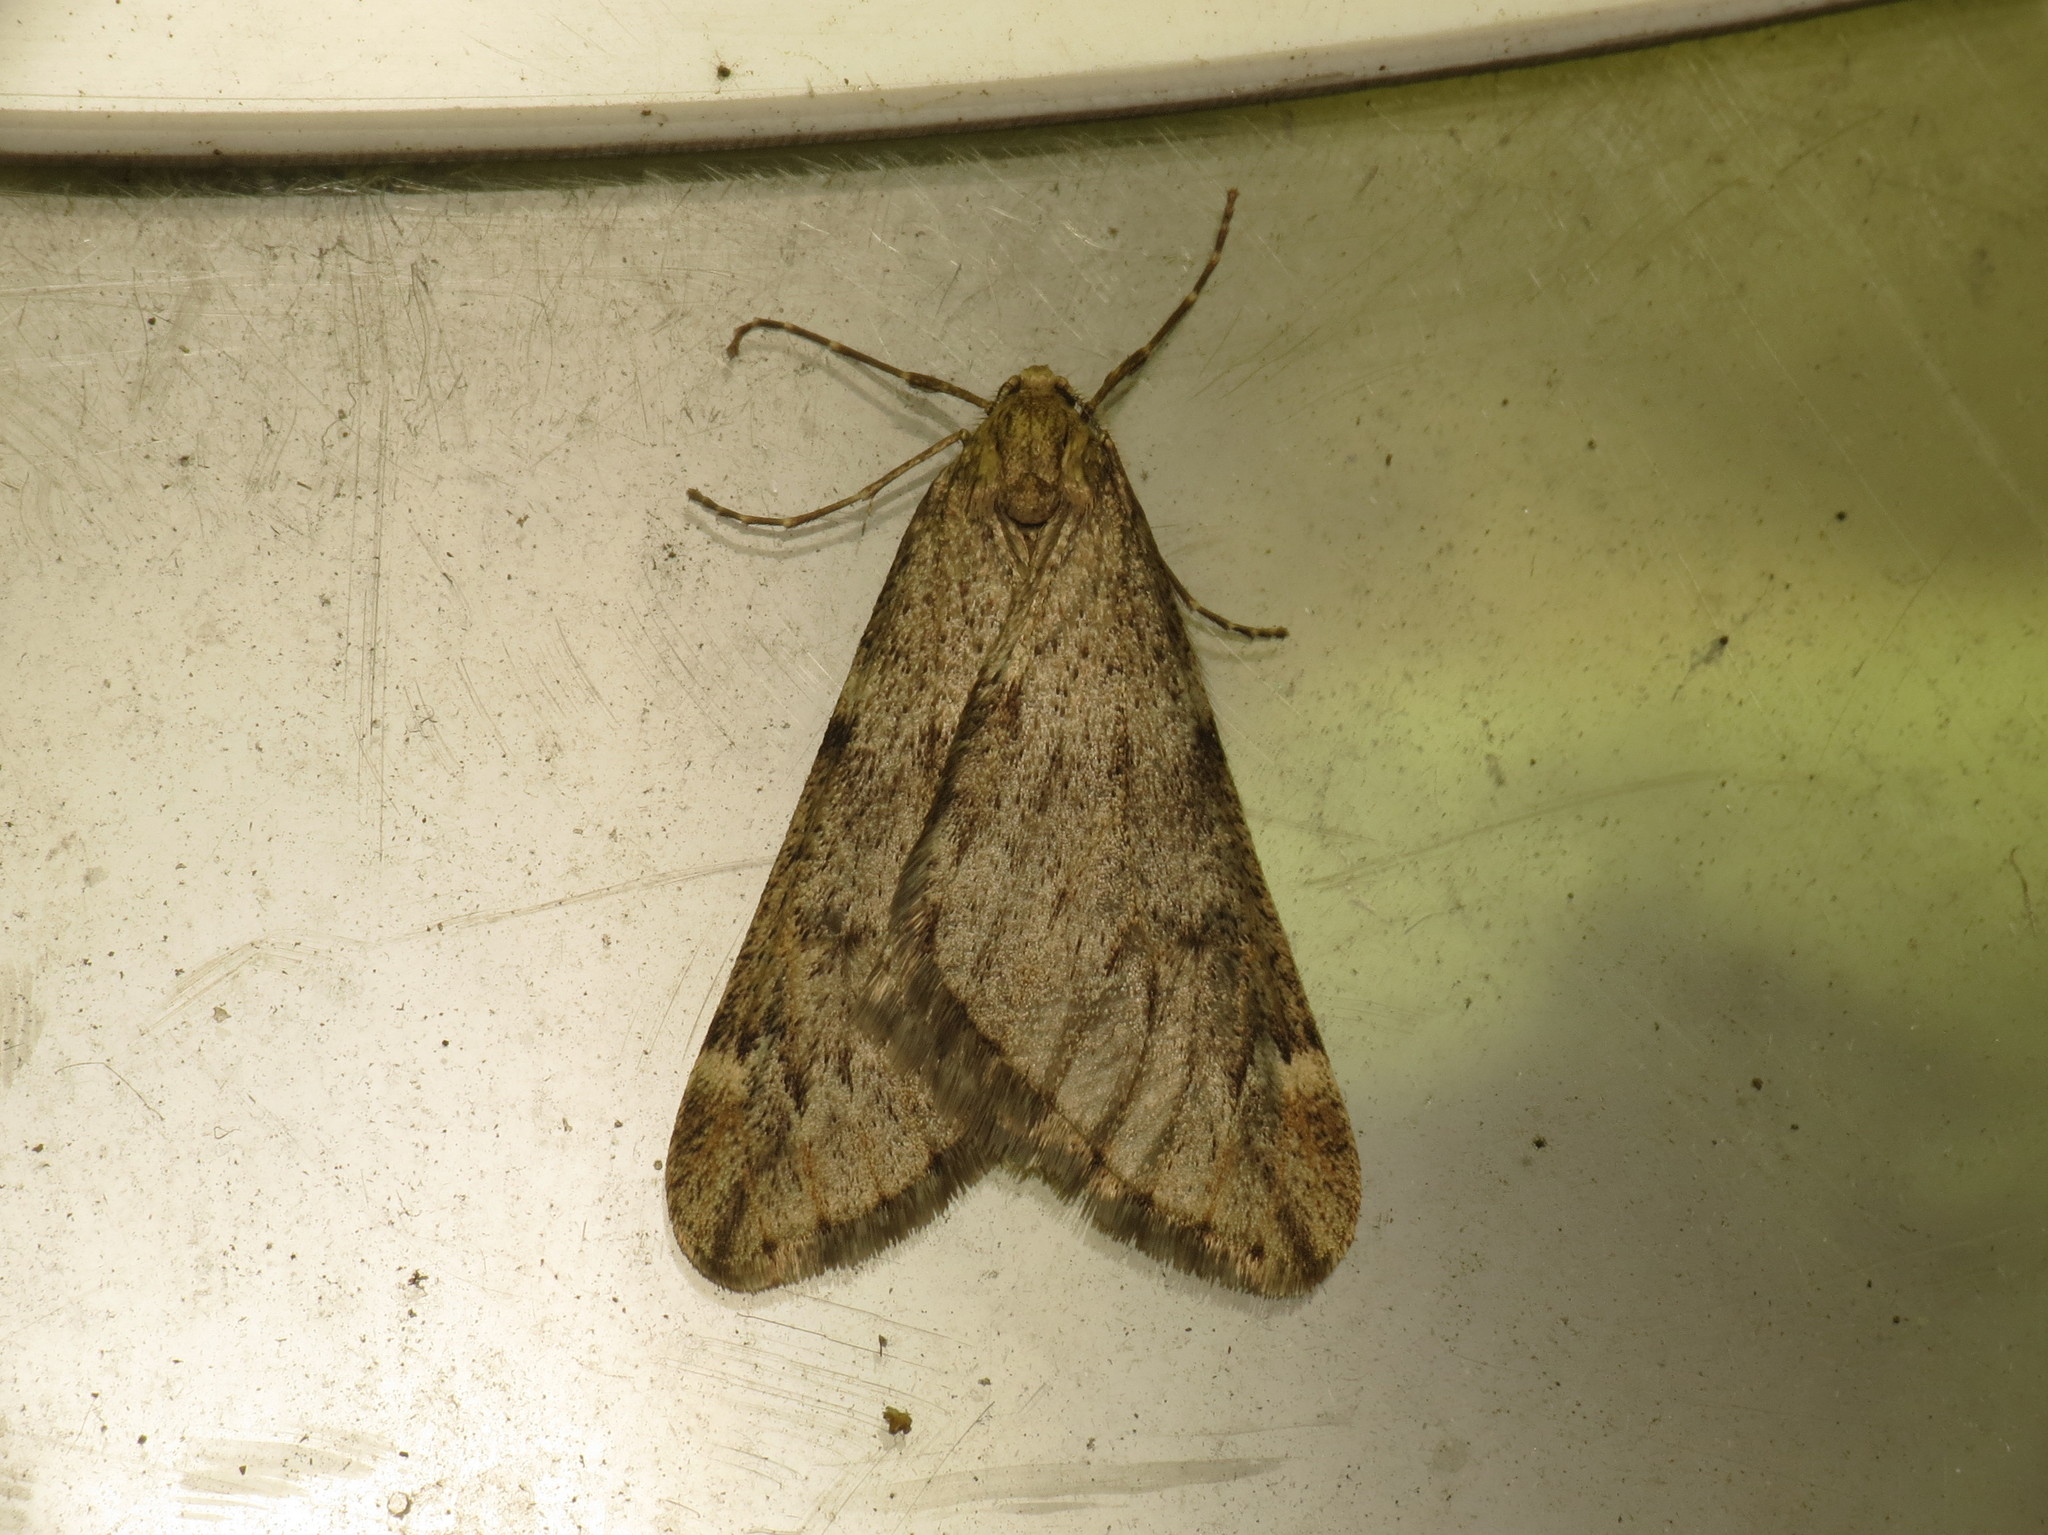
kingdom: Animalia
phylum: Arthropoda
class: Insecta
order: Lepidoptera
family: Geometridae
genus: Alsophila
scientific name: Alsophila aescularia
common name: March moth
